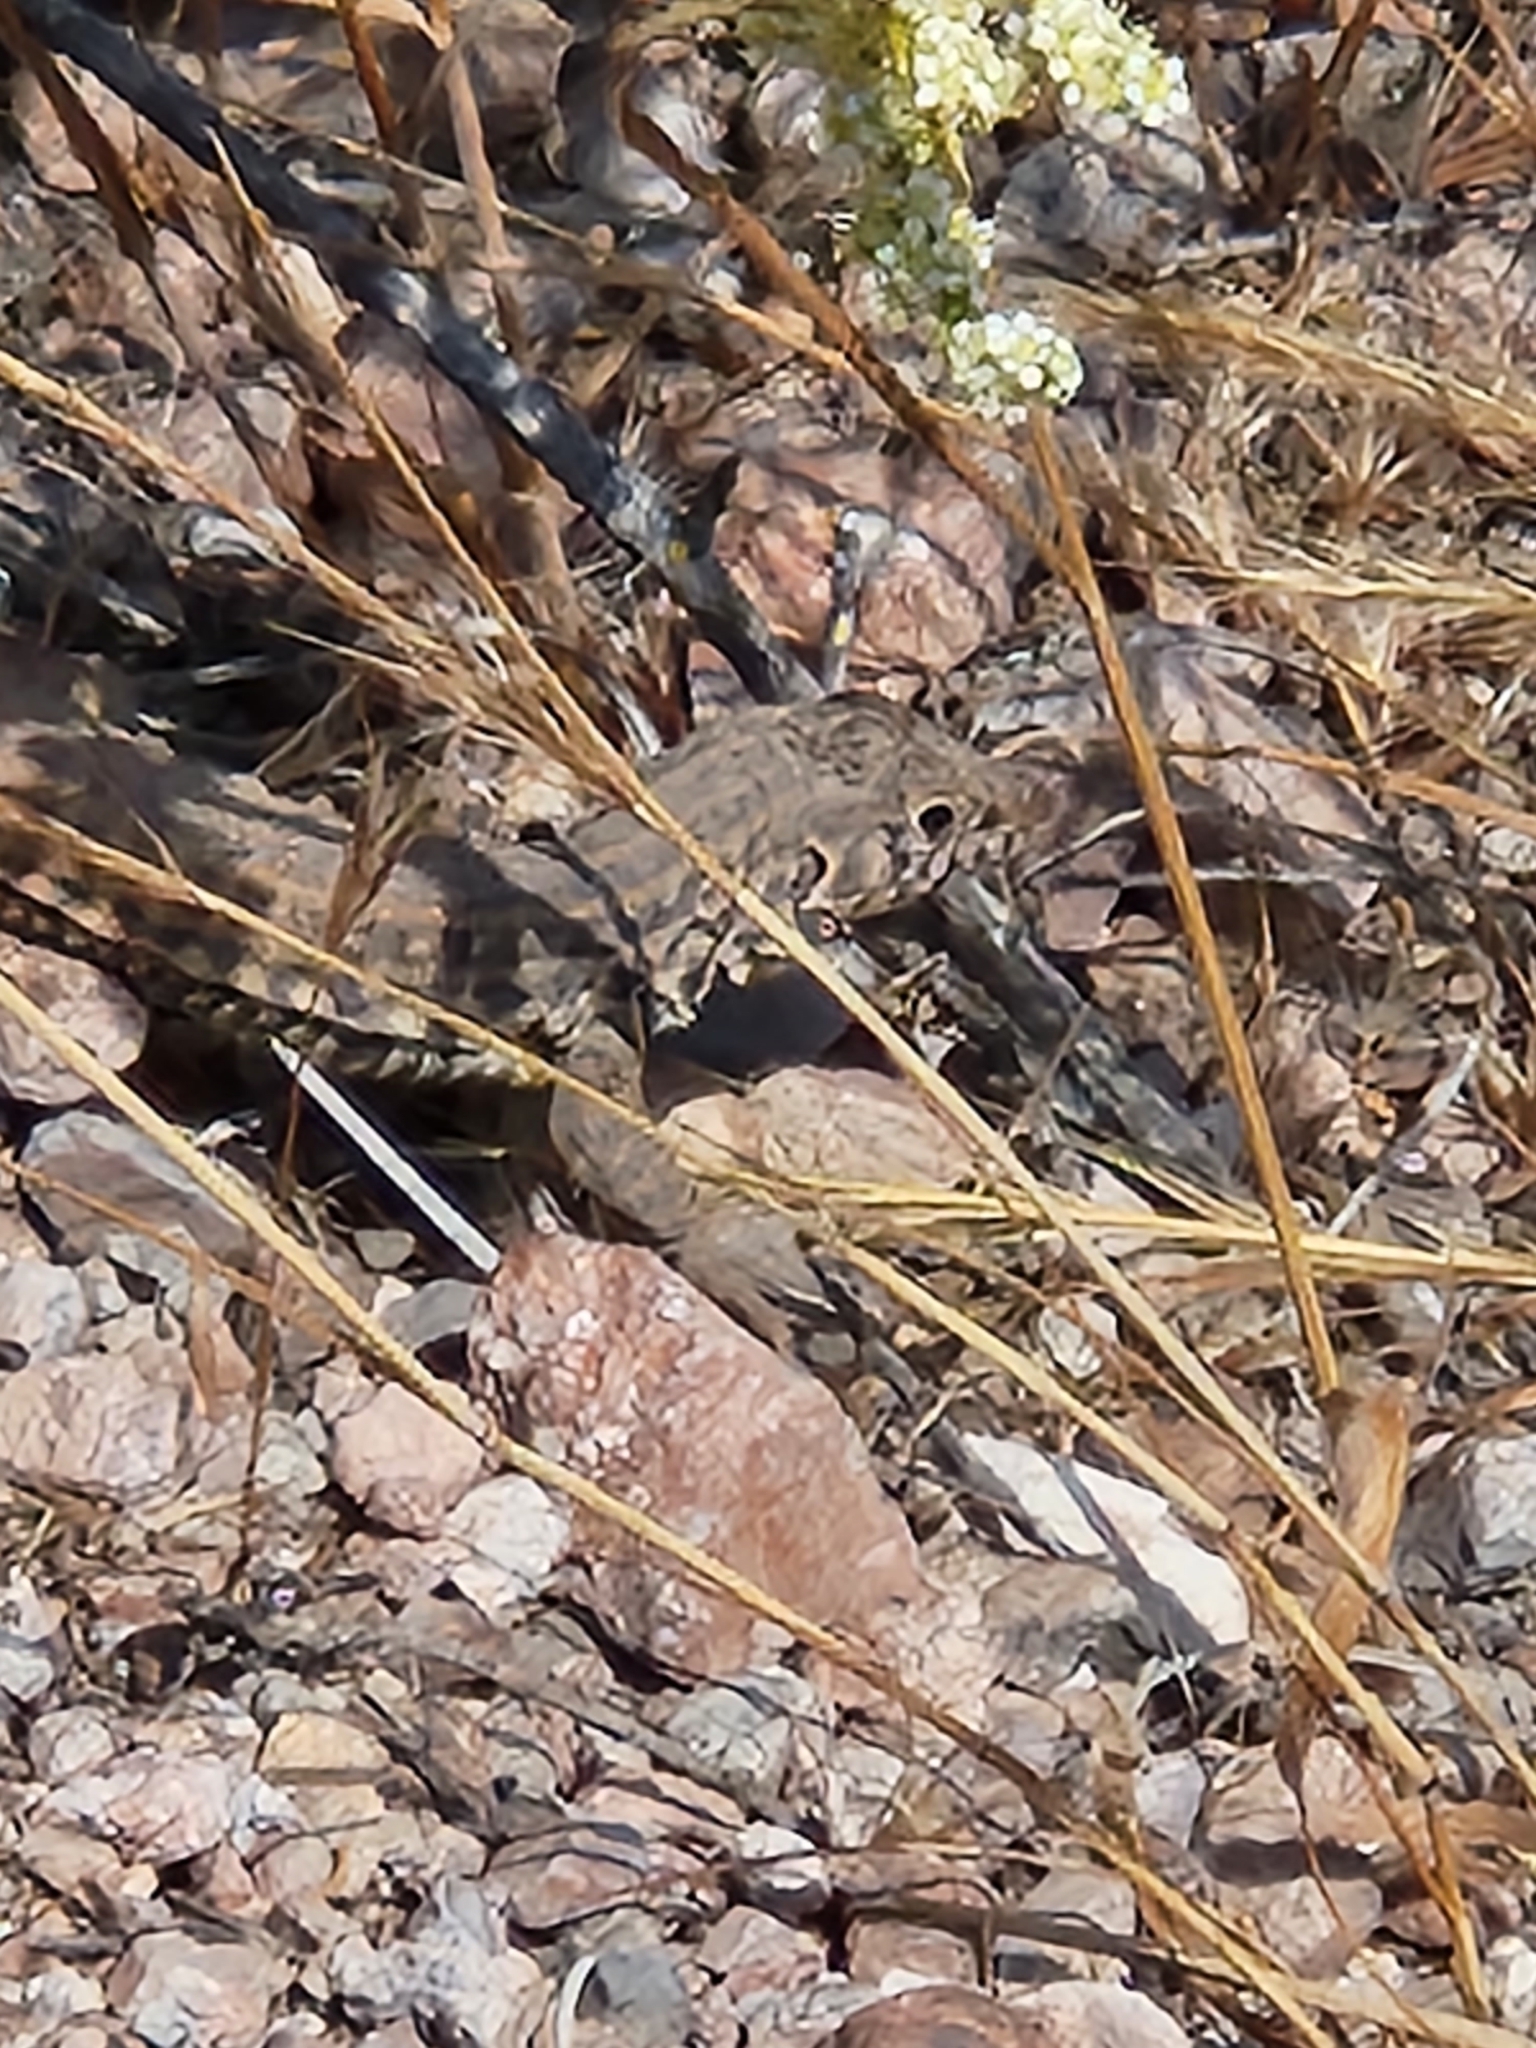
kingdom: Animalia
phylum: Chordata
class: Squamata
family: Teiidae
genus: Aspidoscelis
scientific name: Aspidoscelis tigris
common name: Tiger whiptail
